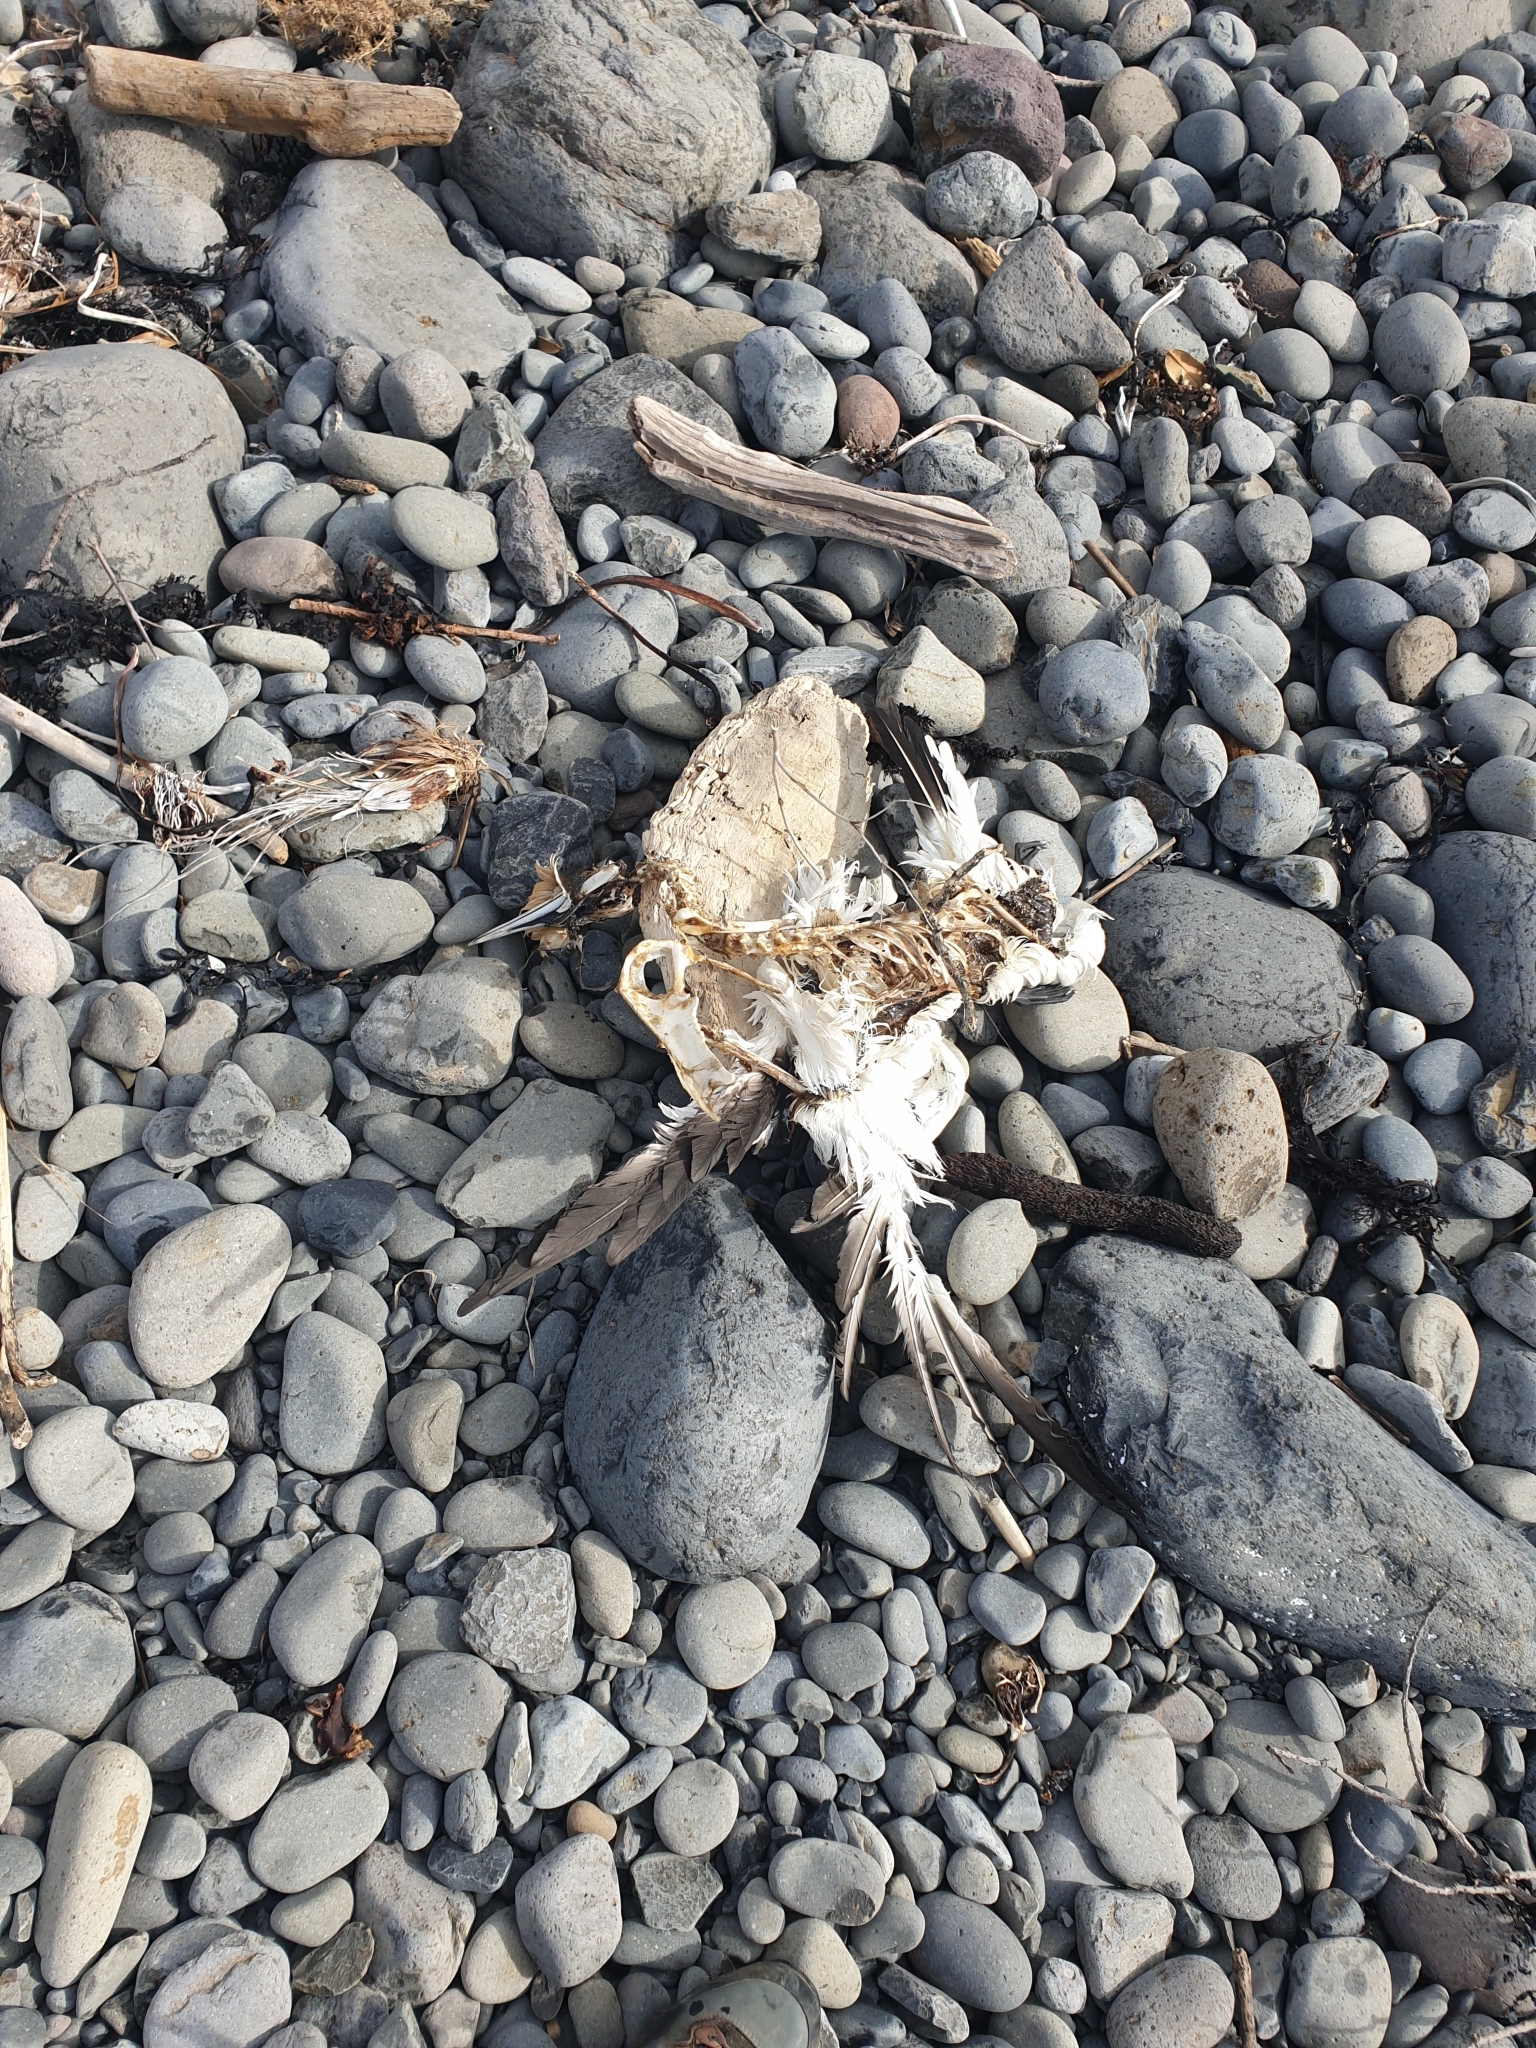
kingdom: Animalia
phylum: Chordata
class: Aves
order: Suliformes
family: Sulidae
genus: Morus
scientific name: Morus serrator
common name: Australasian gannet
